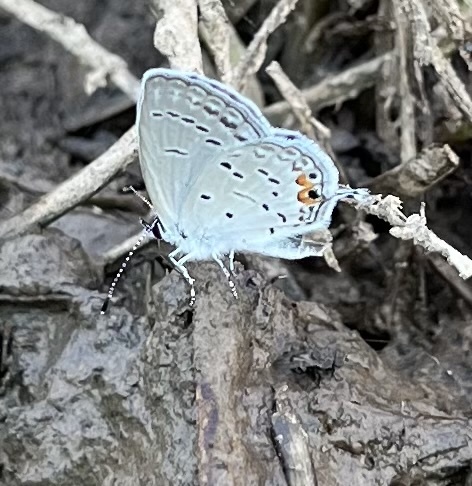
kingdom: Animalia
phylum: Arthropoda
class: Insecta
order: Lepidoptera
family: Lycaenidae
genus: Elkalyce
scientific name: Elkalyce comyntas
